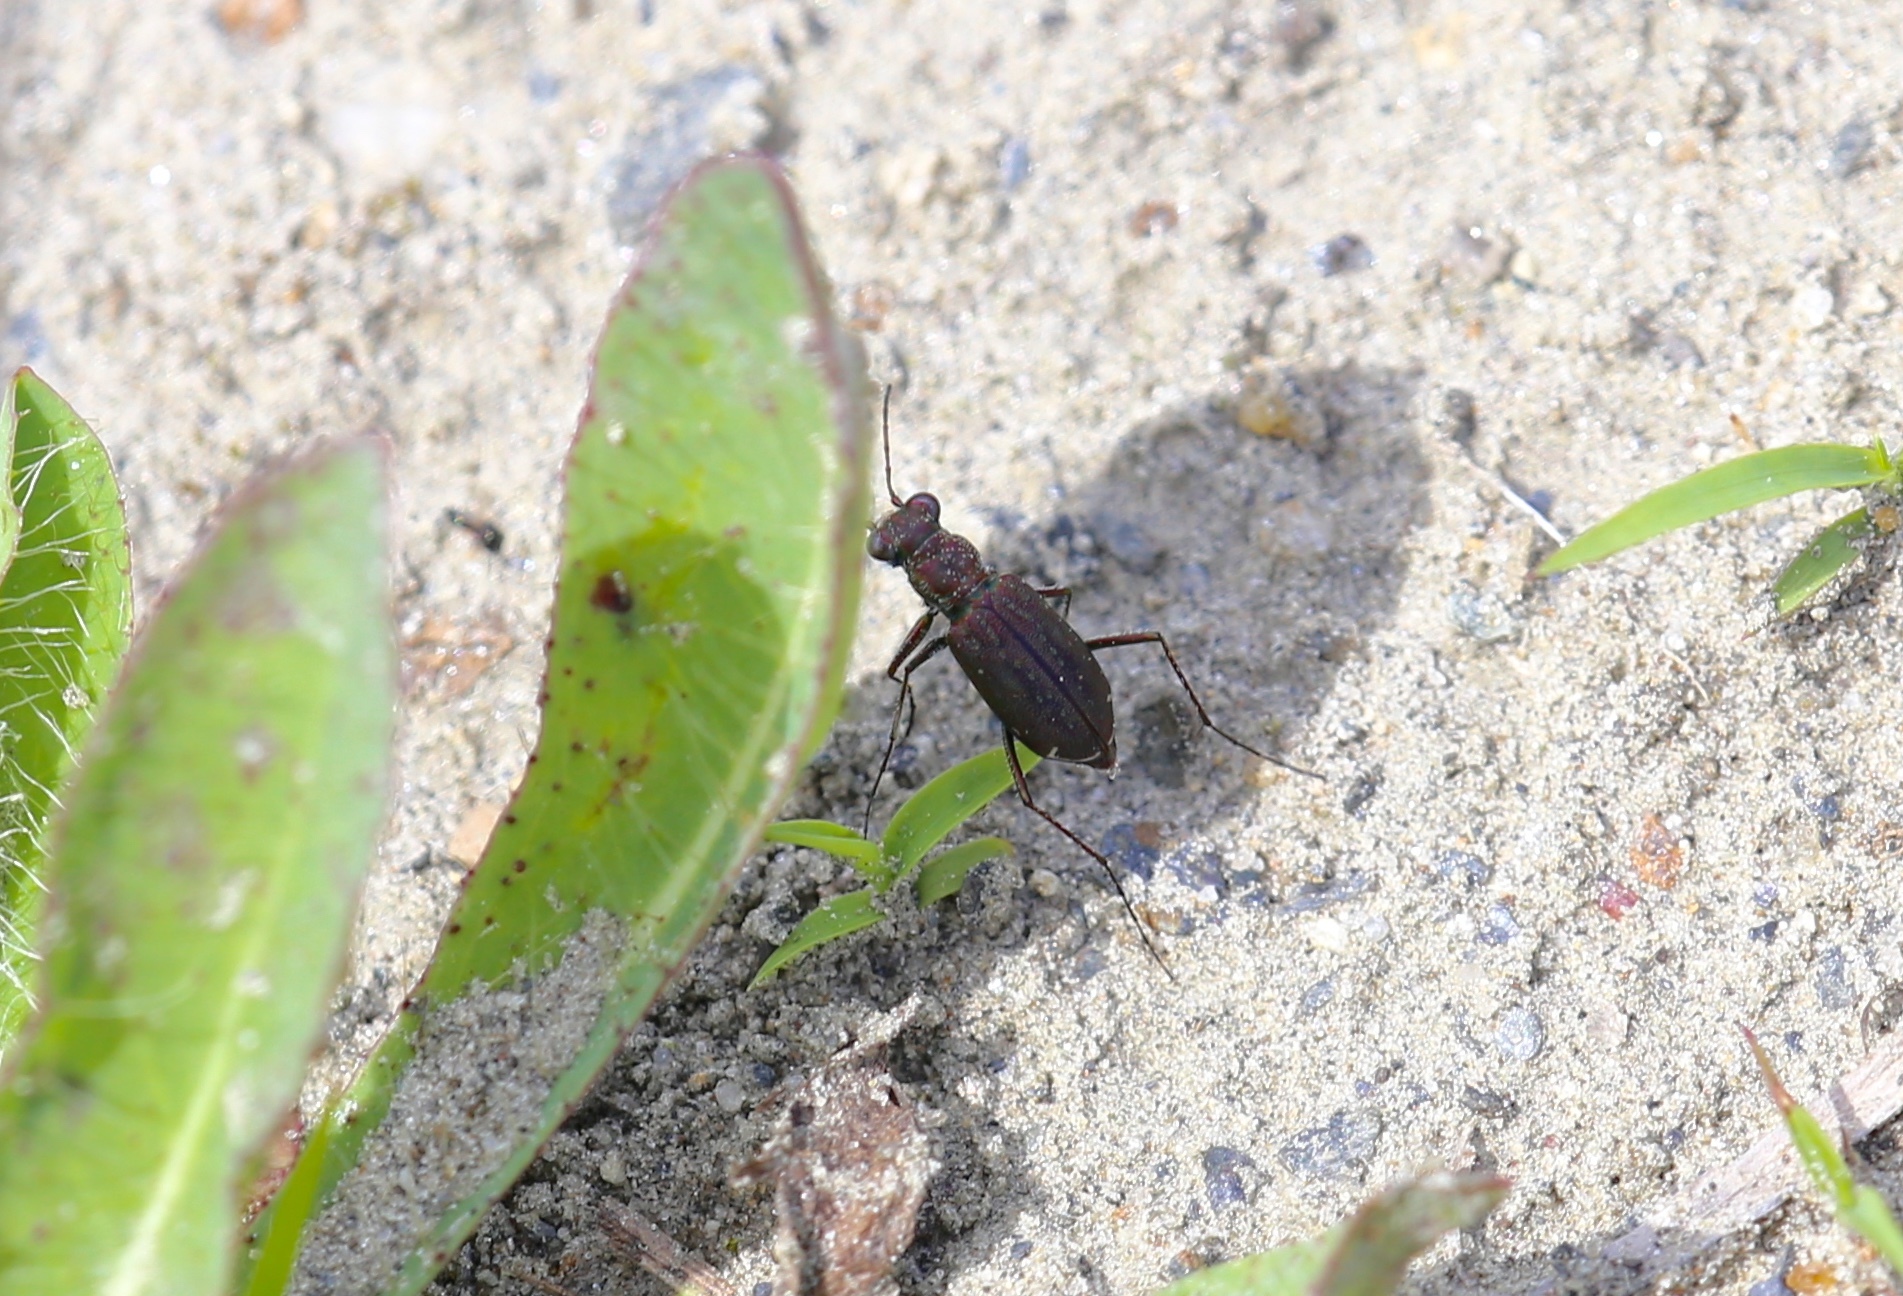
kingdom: Animalia
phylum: Arthropoda
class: Insecta
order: Coleoptera
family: Carabidae
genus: Cicindela
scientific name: Cicindela punctulata
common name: Punctured tiger beetle
